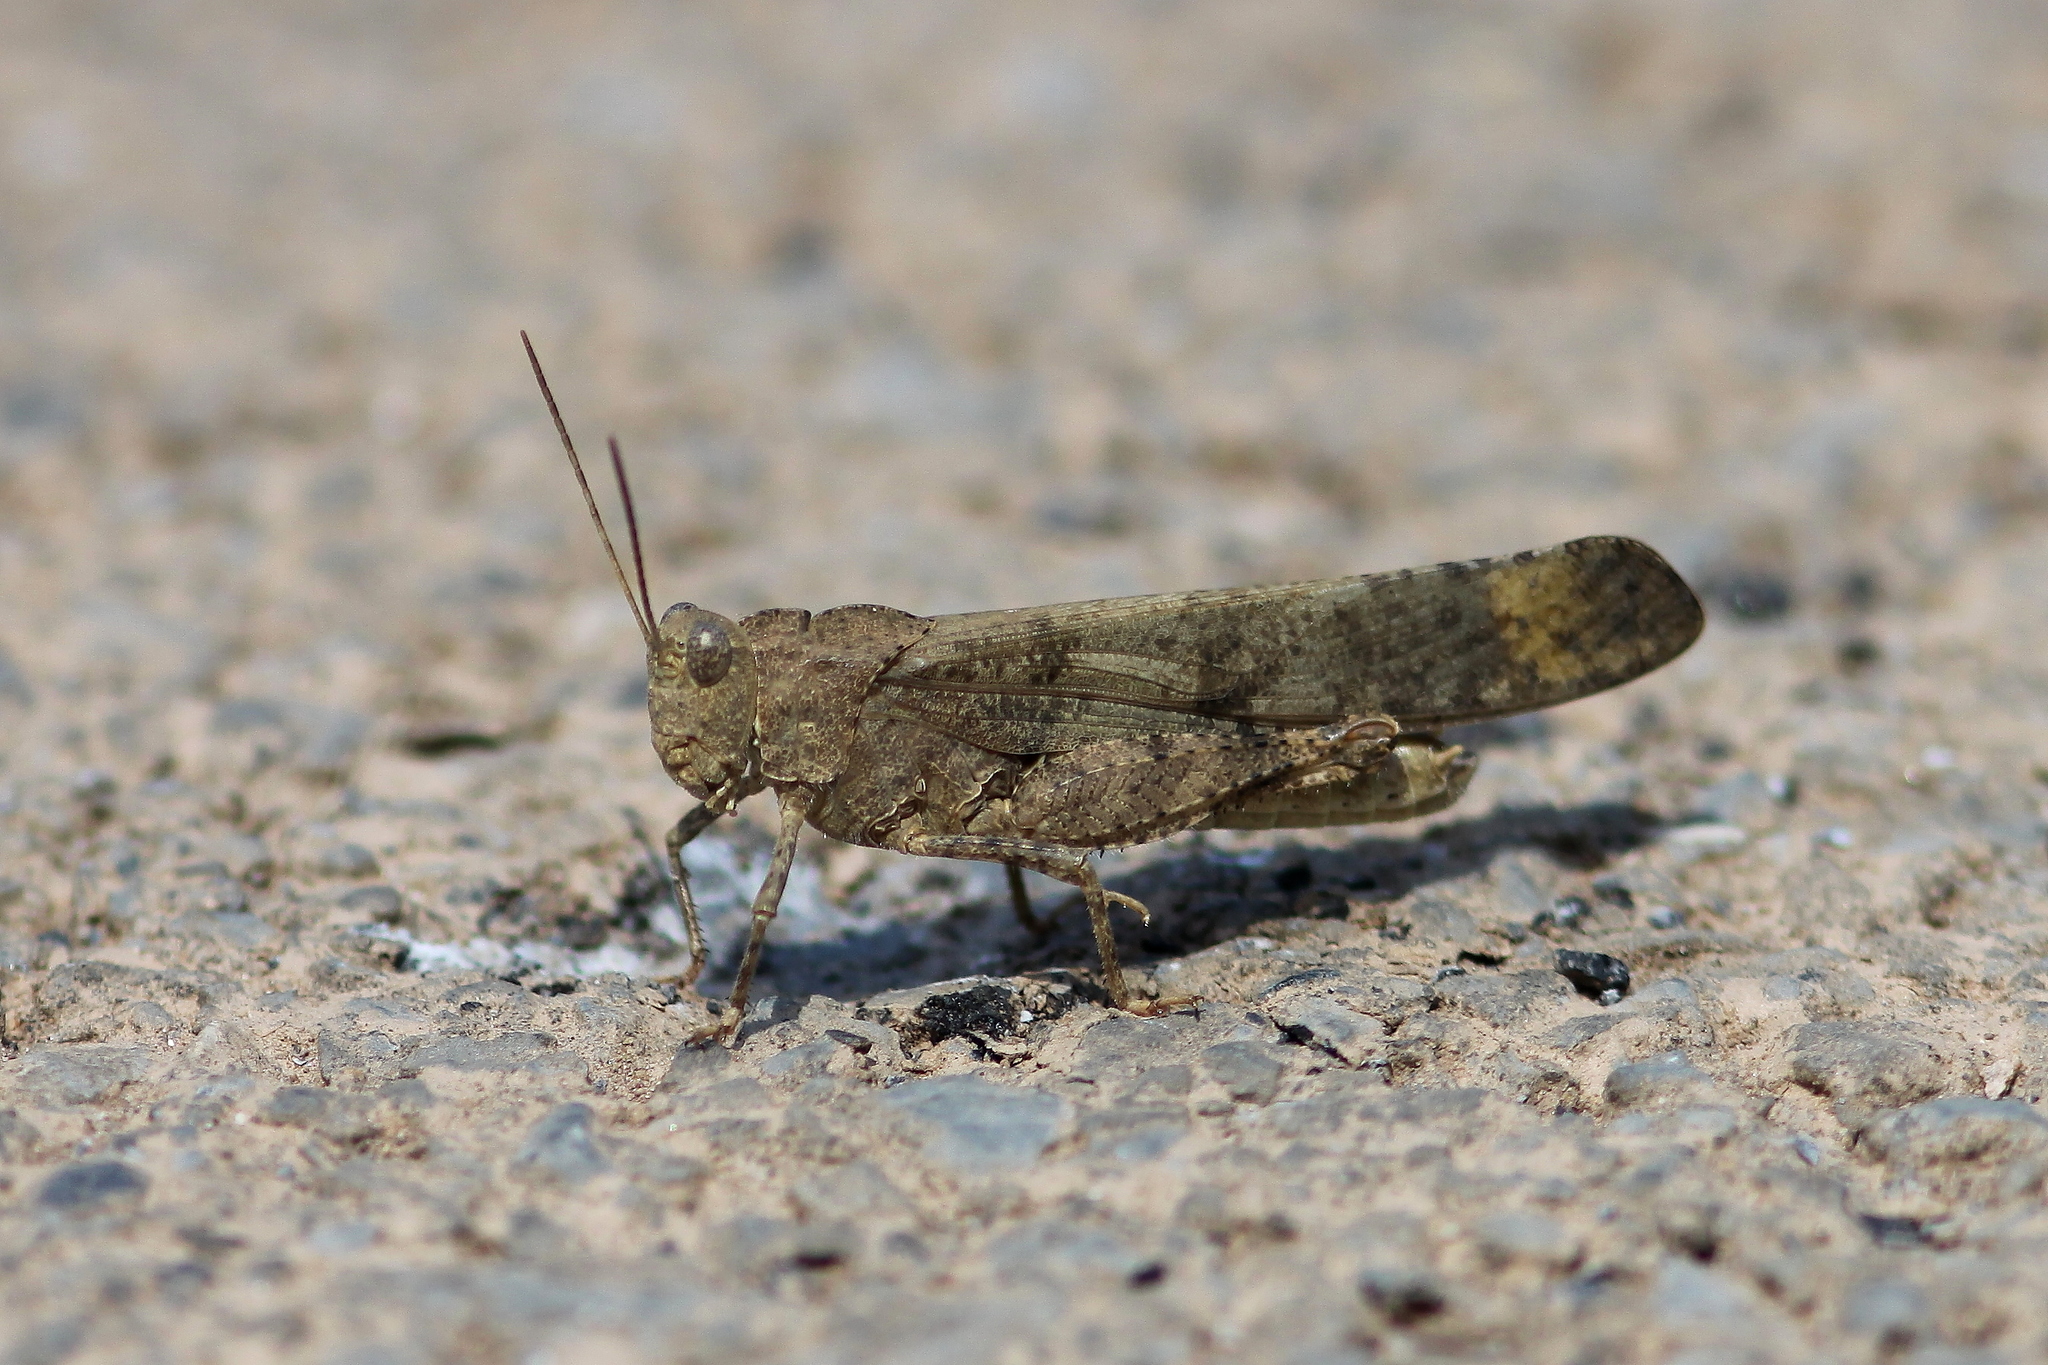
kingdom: Animalia
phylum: Arthropoda
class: Insecta
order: Orthoptera
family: Acrididae
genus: Dissosteira
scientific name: Dissosteira carolina
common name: Carolina grasshopper
